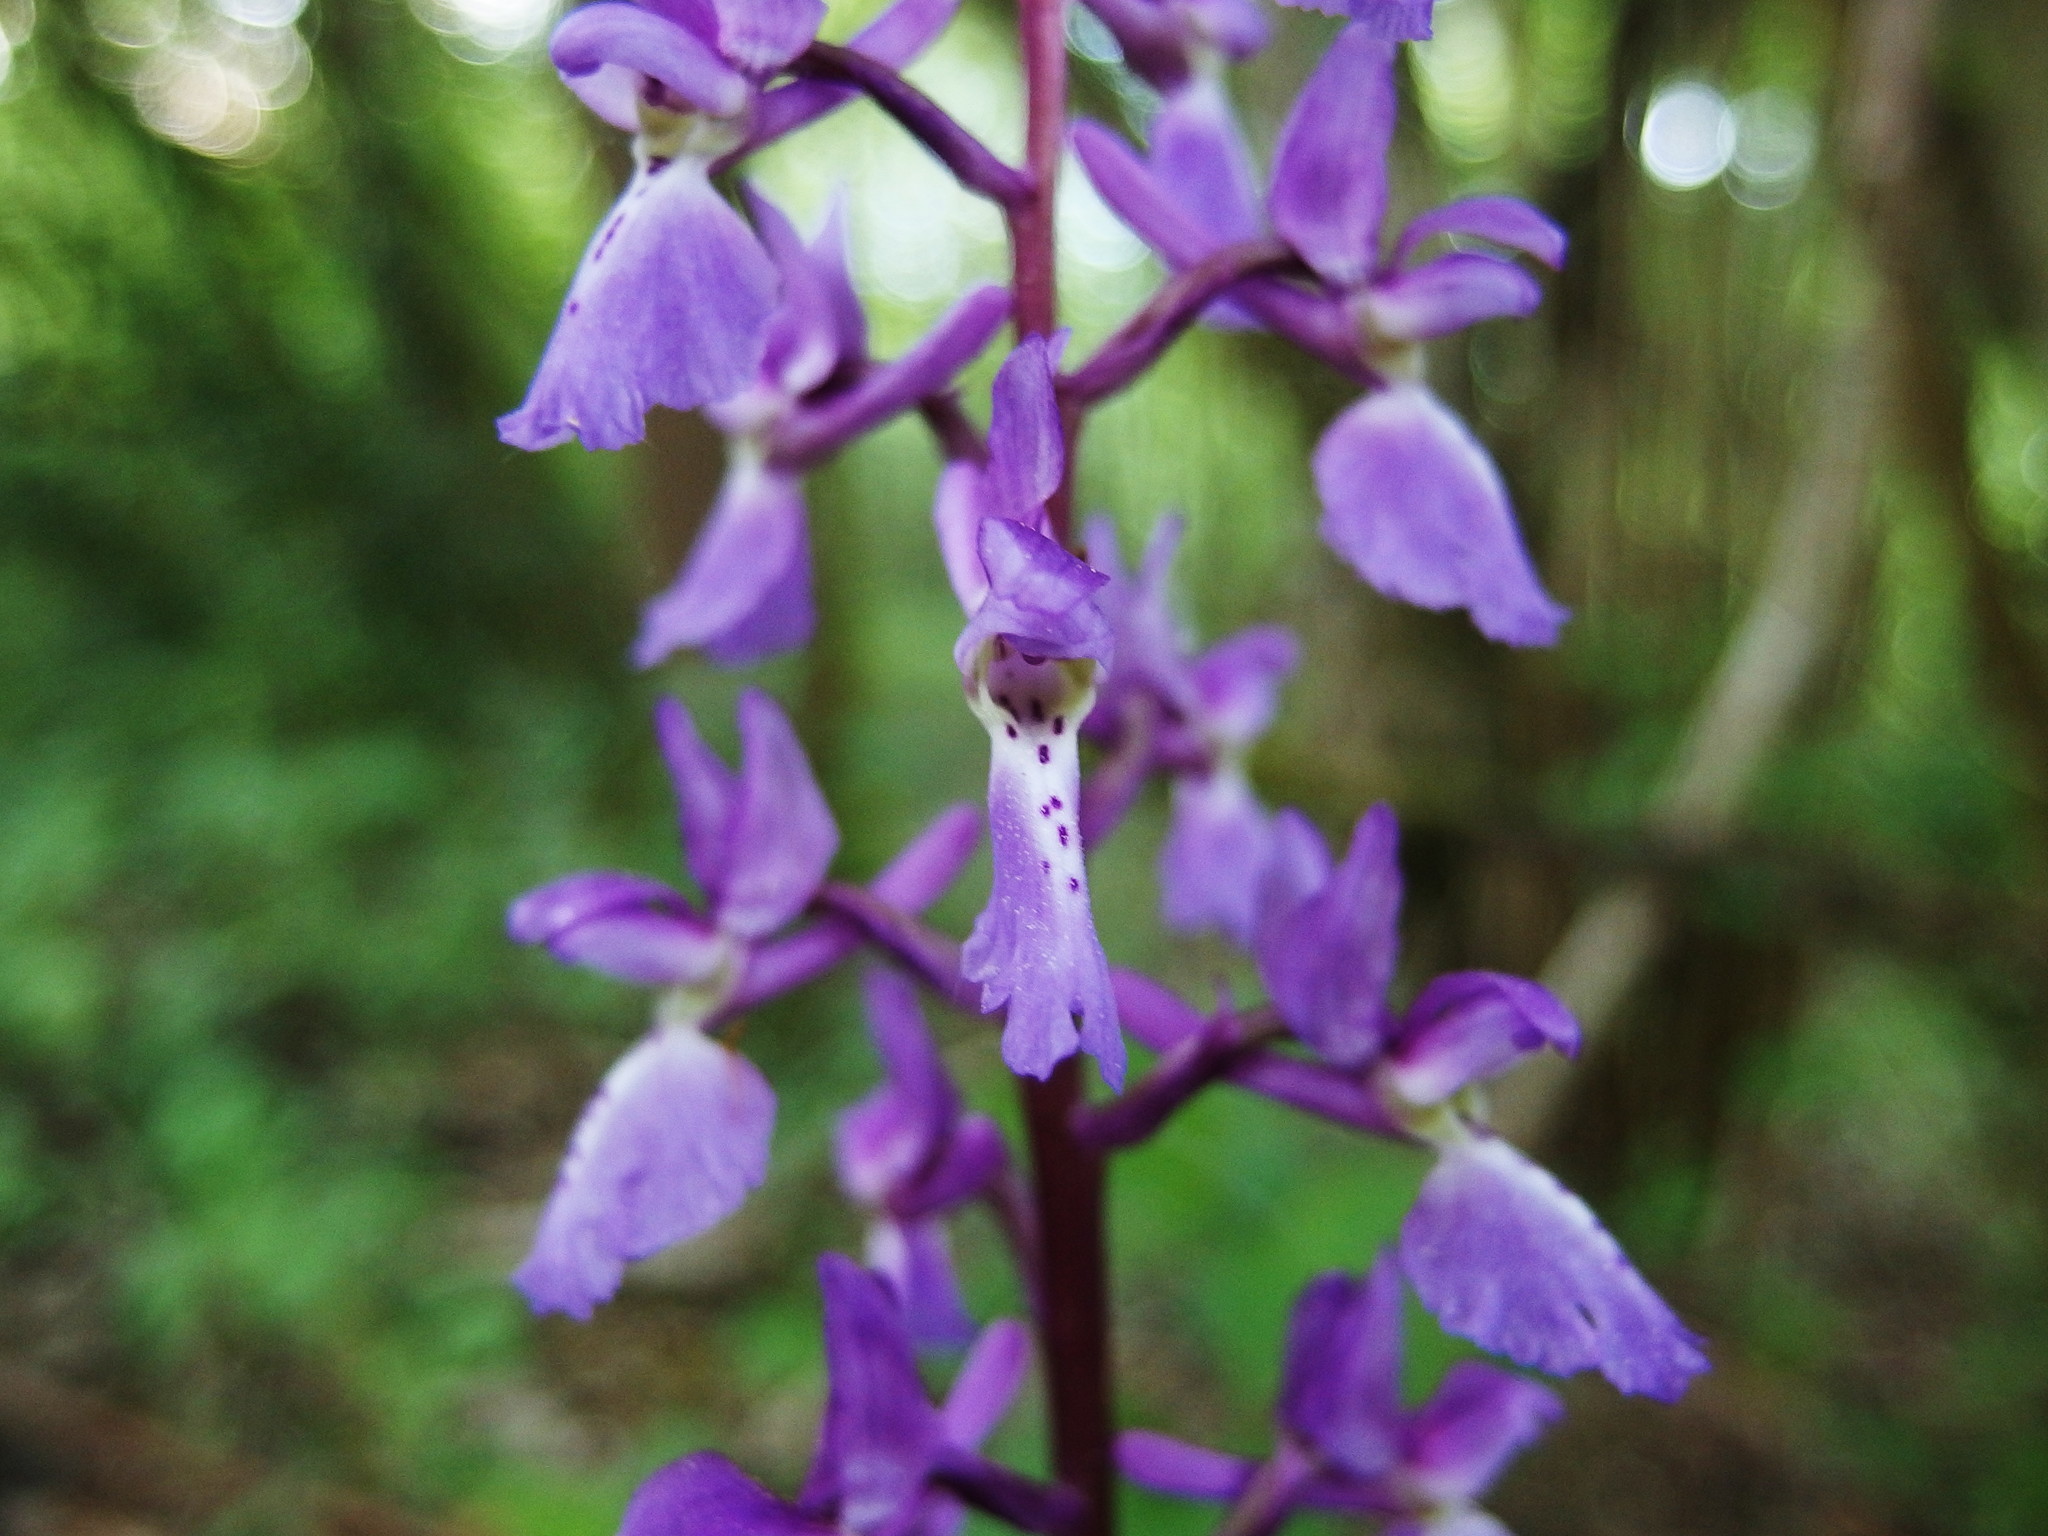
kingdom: Plantae
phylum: Tracheophyta
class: Liliopsida
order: Asparagales
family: Orchidaceae
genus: Orchis
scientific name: Orchis mascula
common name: Early-purple orchid
